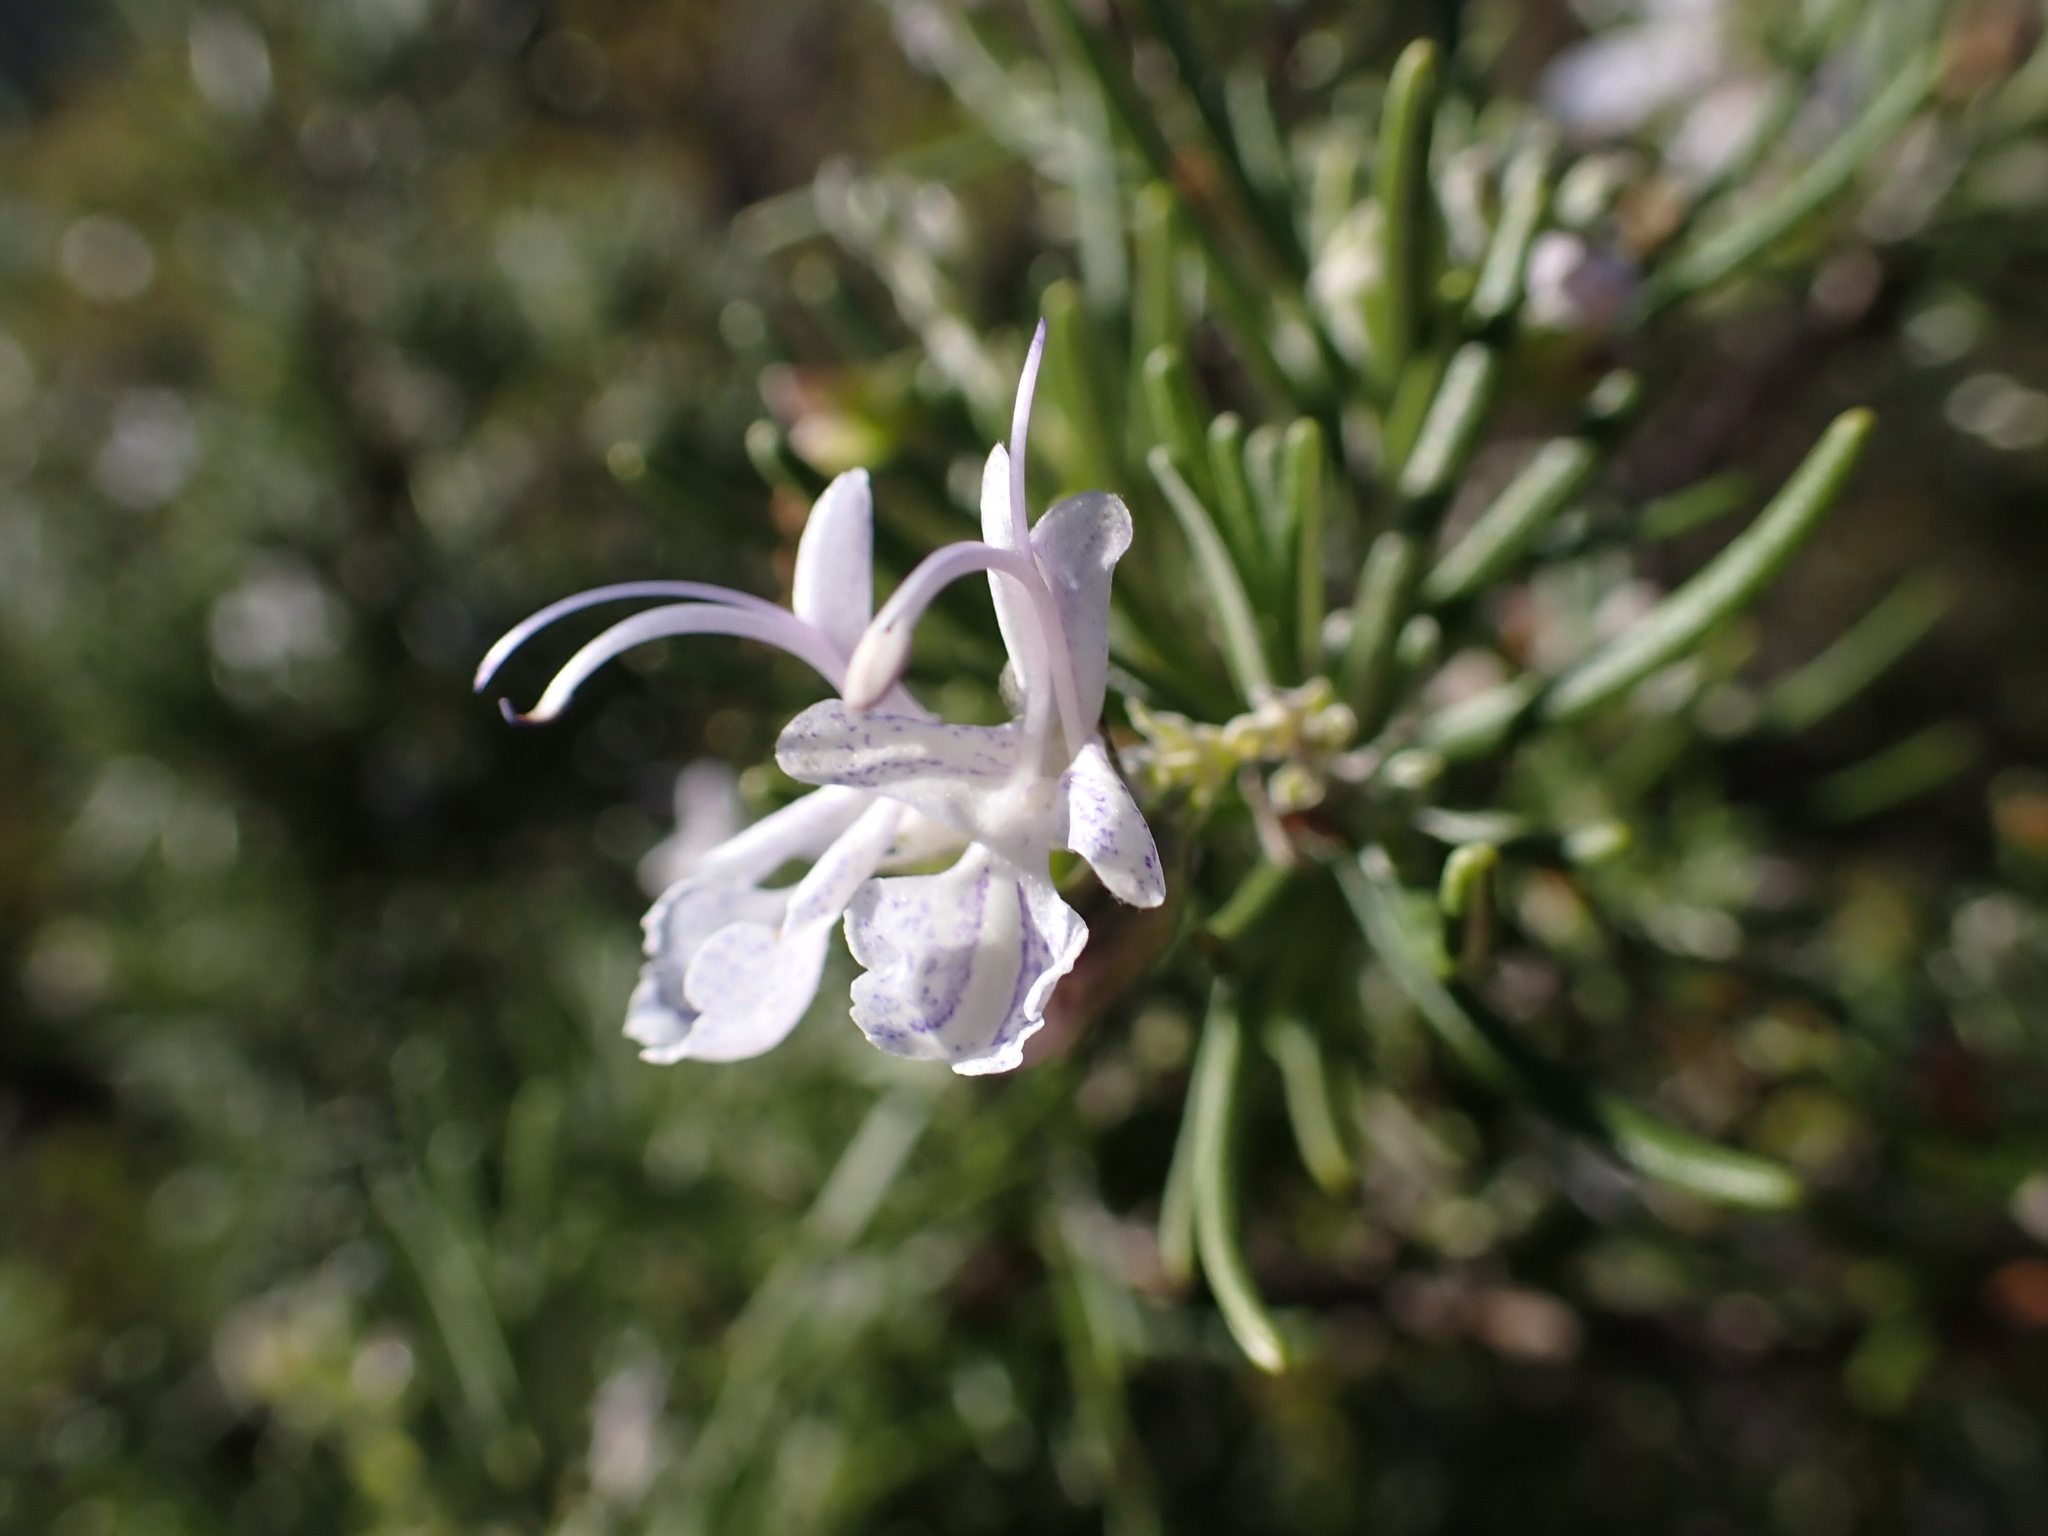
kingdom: Plantae
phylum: Tracheophyta
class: Magnoliopsida
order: Lamiales
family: Lamiaceae
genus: Salvia
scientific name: Salvia rosmarinus
